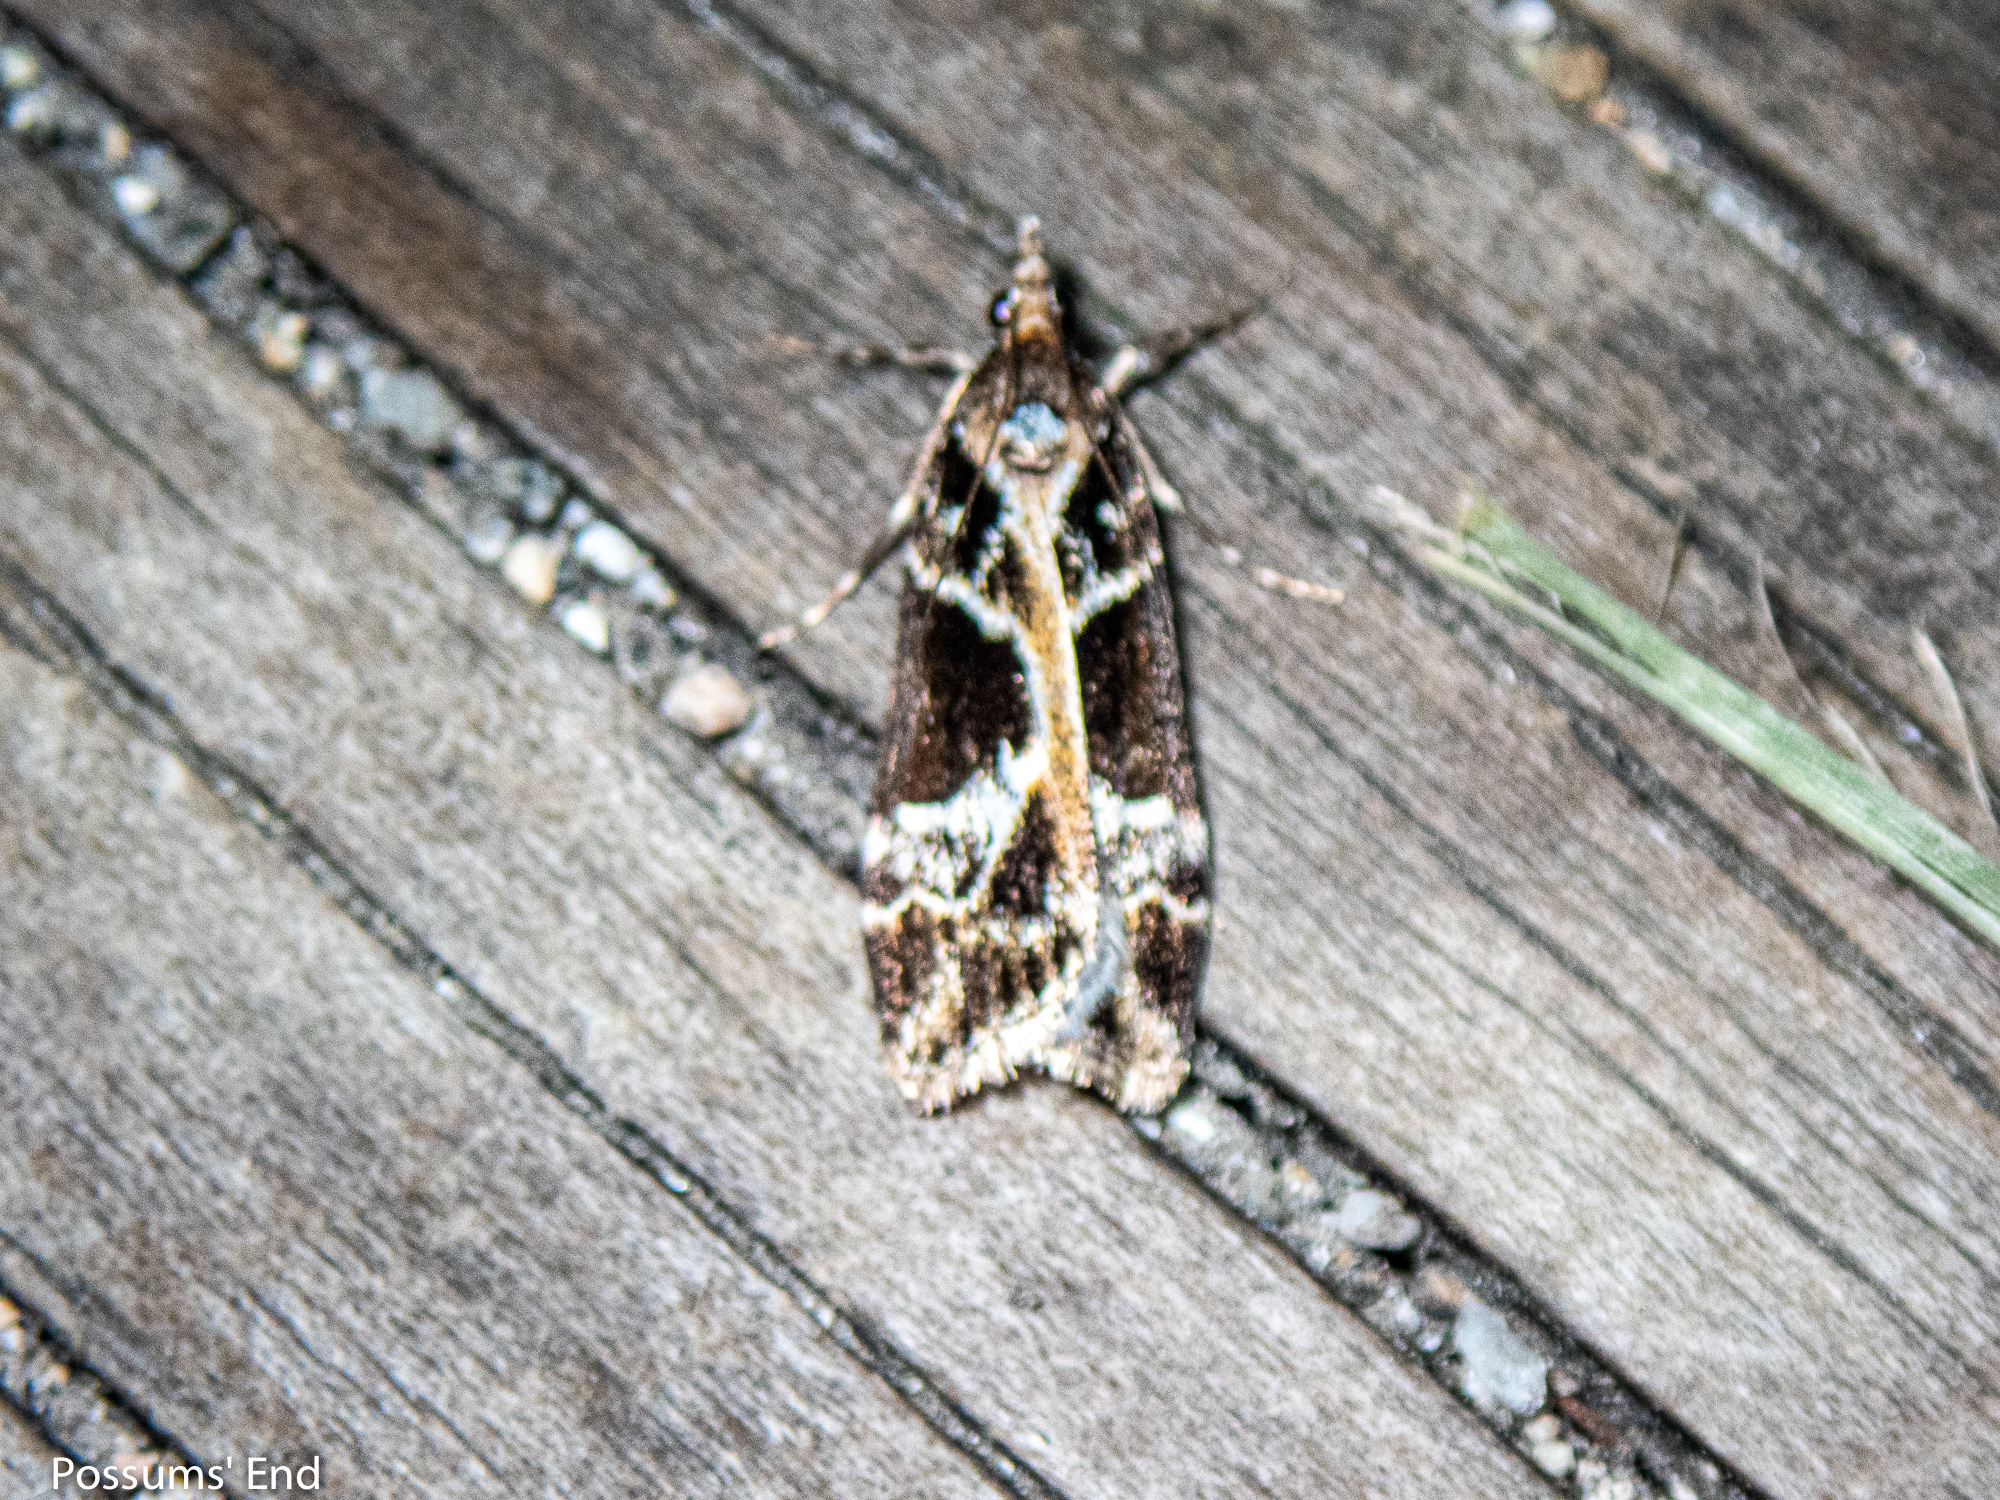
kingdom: Animalia
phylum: Arthropoda
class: Insecta
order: Lepidoptera
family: Crambidae
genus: Eudonia
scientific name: Eudonia melanaegis
